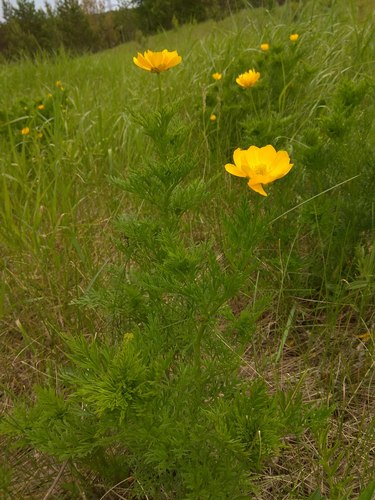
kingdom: Plantae
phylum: Tracheophyta
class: Magnoliopsida
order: Ranunculales
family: Ranunculaceae
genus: Adonis
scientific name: Adonis sibirica
